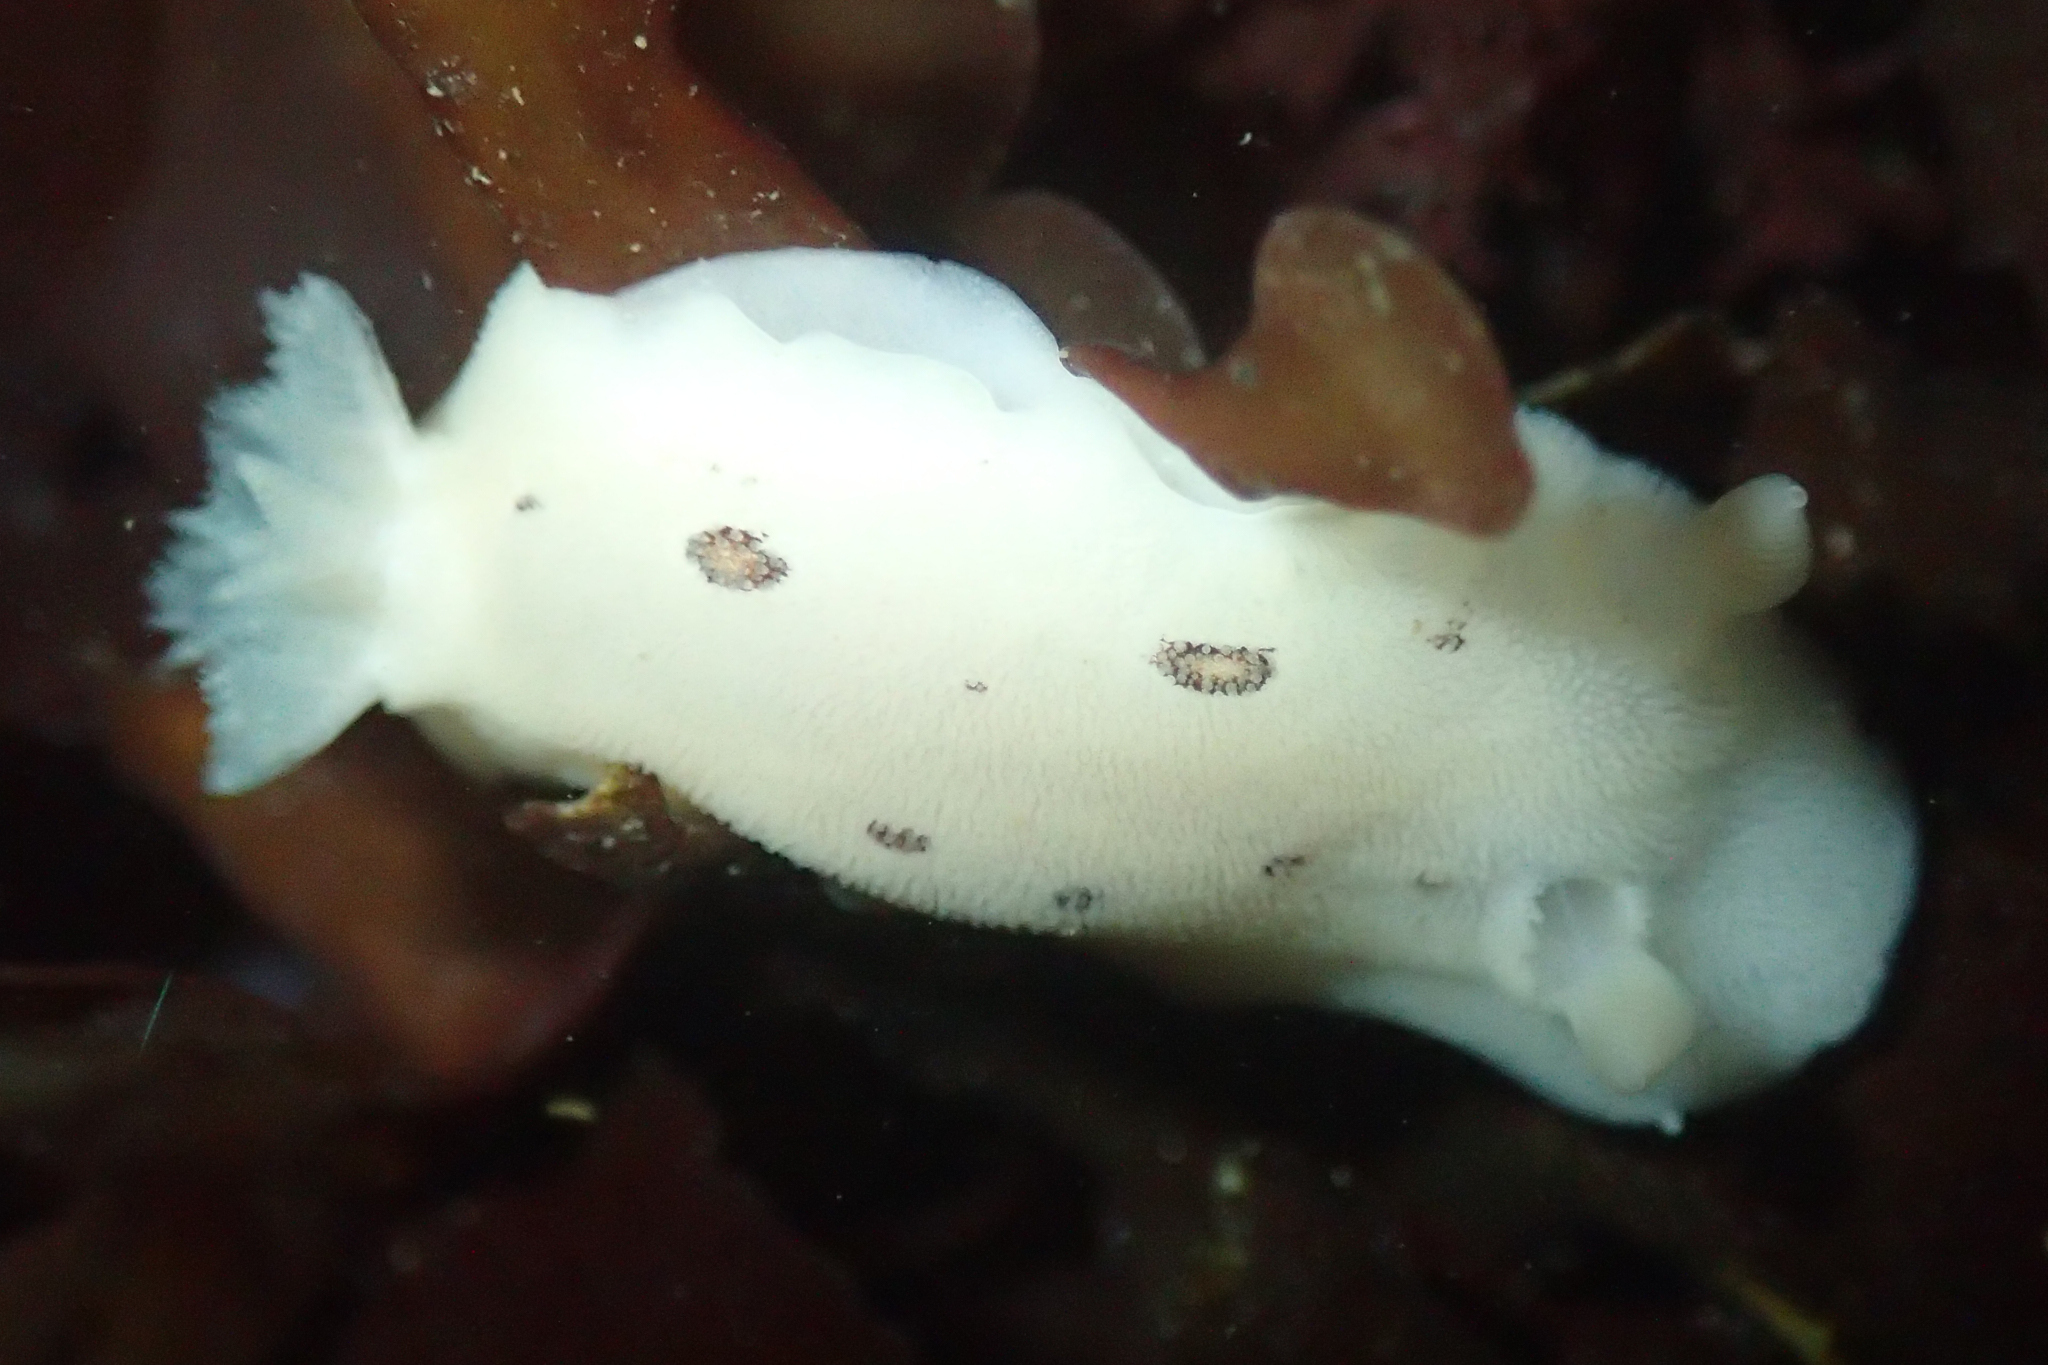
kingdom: Animalia
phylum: Mollusca
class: Gastropoda
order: Nudibranchia
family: Discodorididae
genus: Diaulula
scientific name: Diaulula sandiegensis
